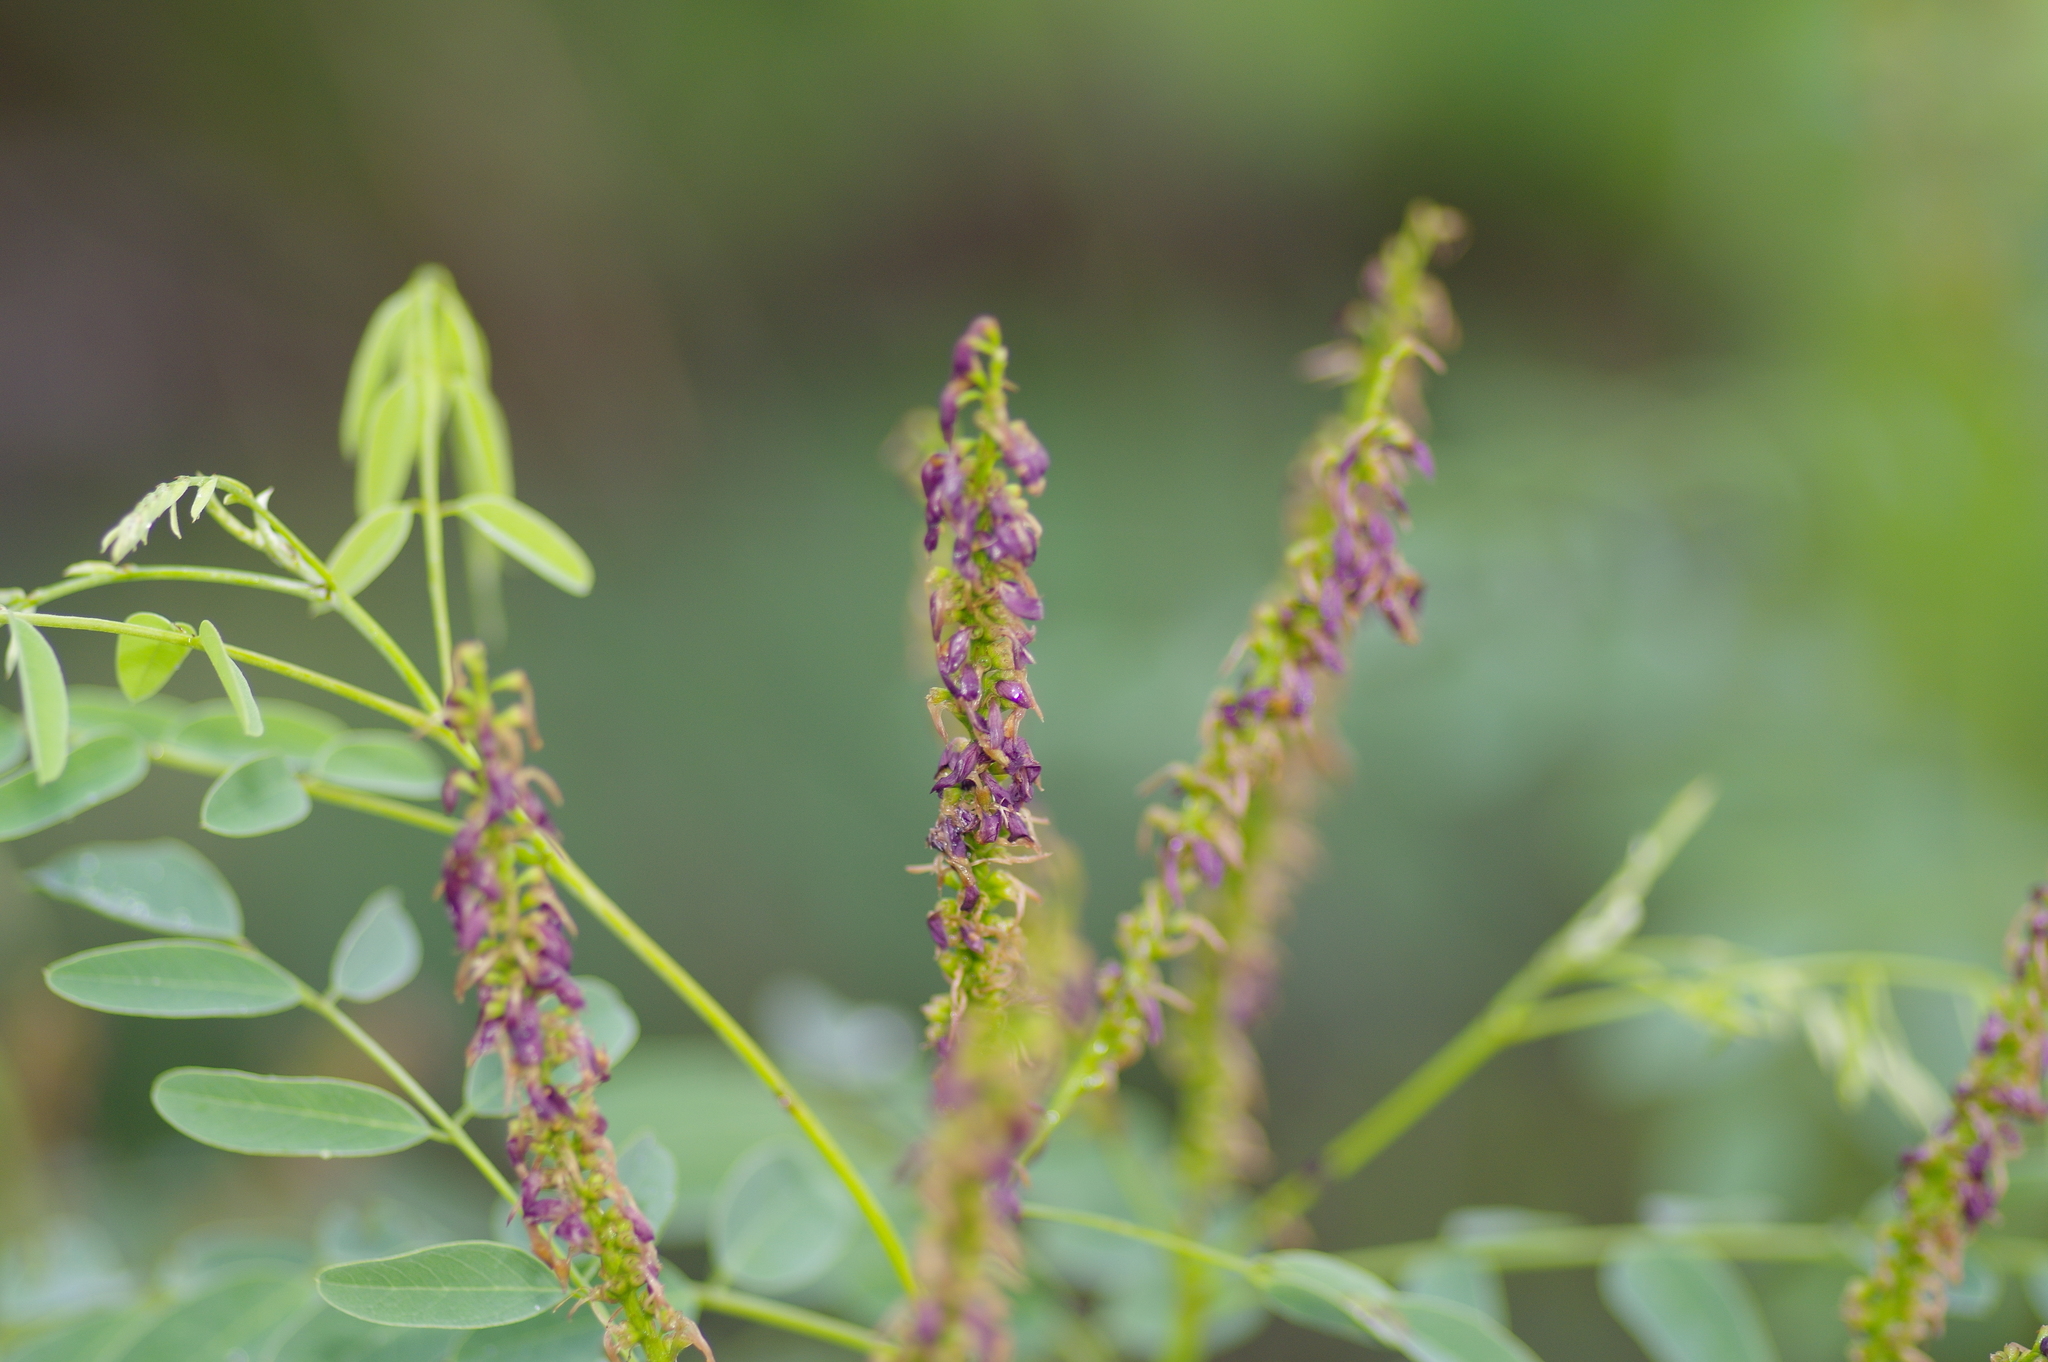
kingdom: Plantae
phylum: Tracheophyta
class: Magnoliopsida
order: Fabales
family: Fabaceae
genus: Amorpha
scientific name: Amorpha fruticosa
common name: False indigo
